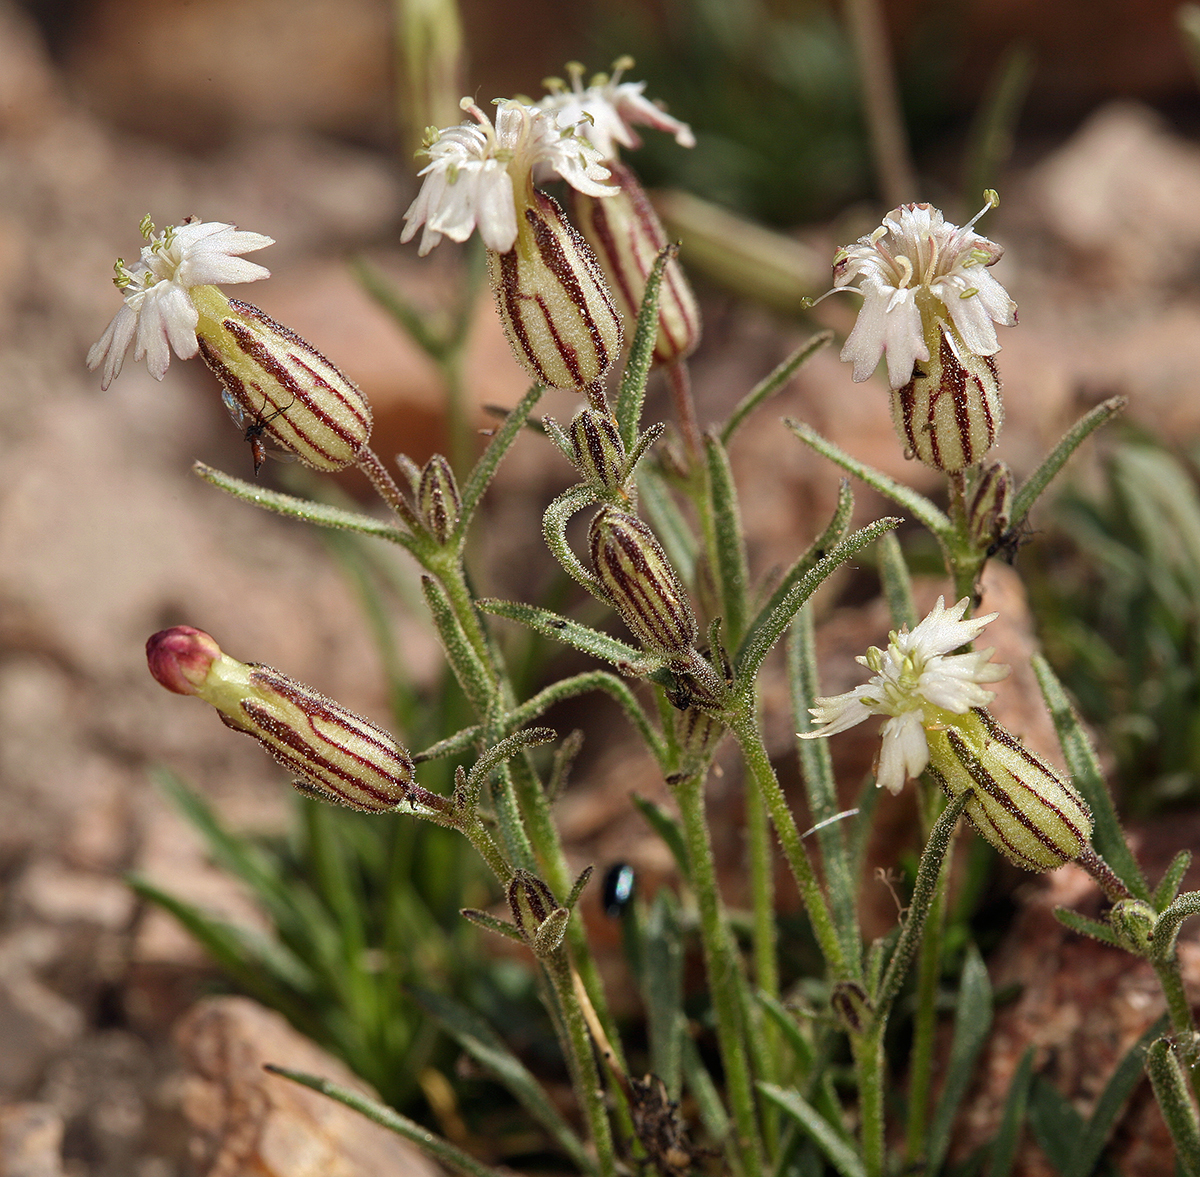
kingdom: Plantae
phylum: Tracheophyta
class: Magnoliopsida
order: Caryophyllales
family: Caryophyllaceae
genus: Silene
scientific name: Silene sargentii
